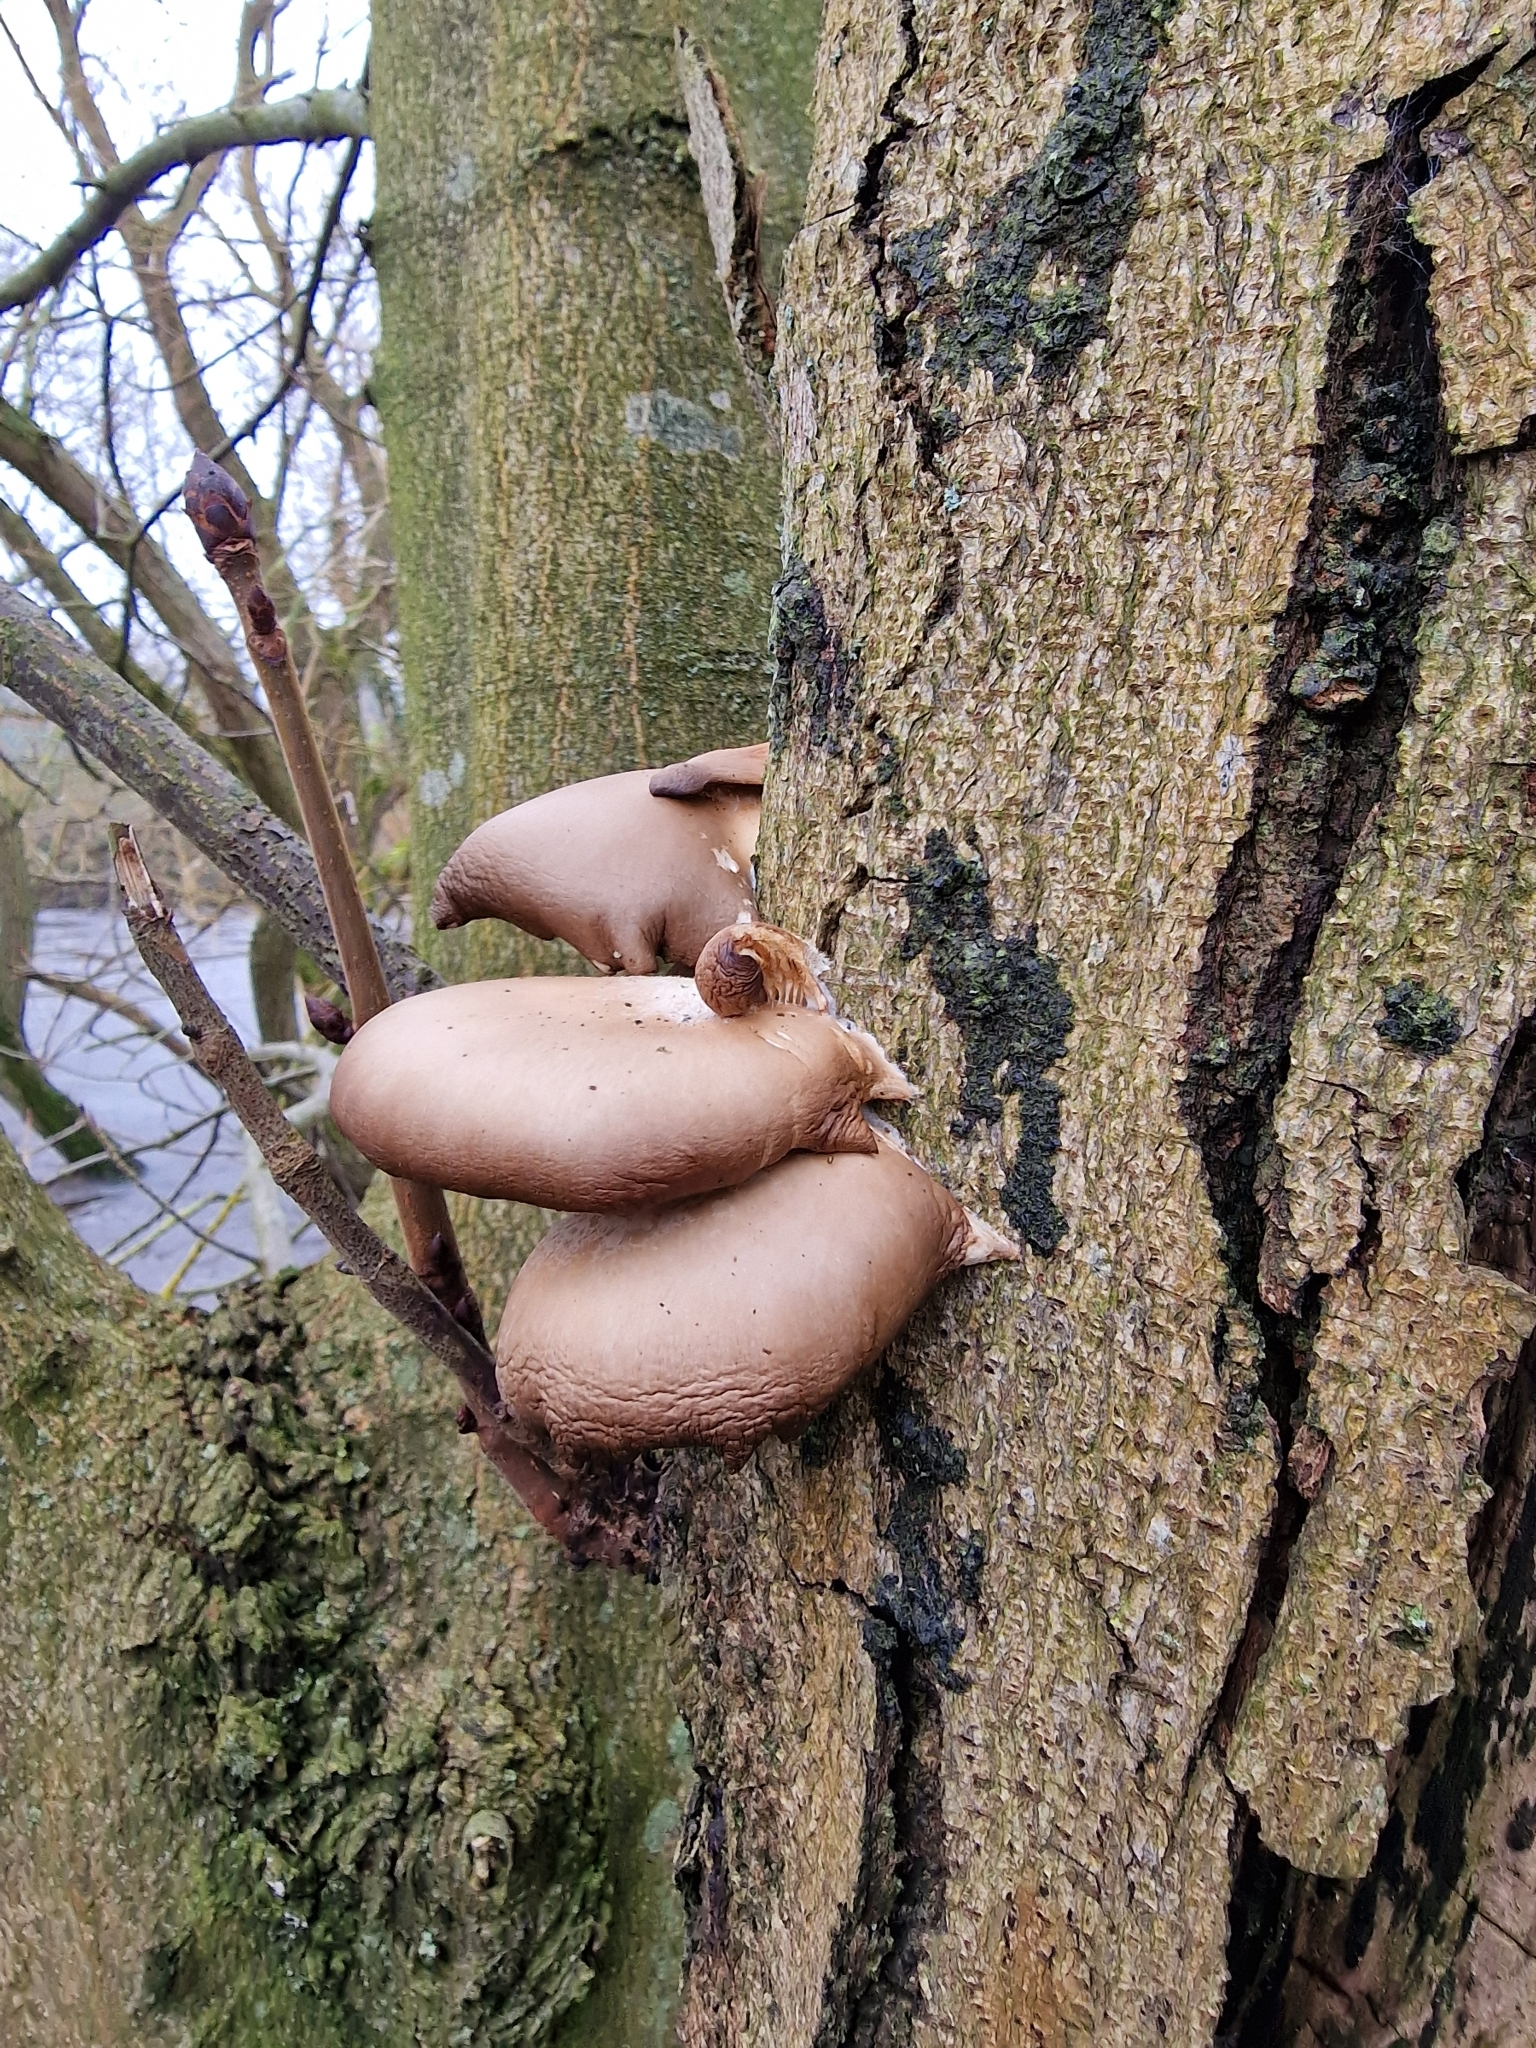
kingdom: Fungi
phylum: Basidiomycota
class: Agaricomycetes
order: Agaricales
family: Pleurotaceae
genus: Pleurotus
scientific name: Pleurotus ostreatus
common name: Oyster mushroom
